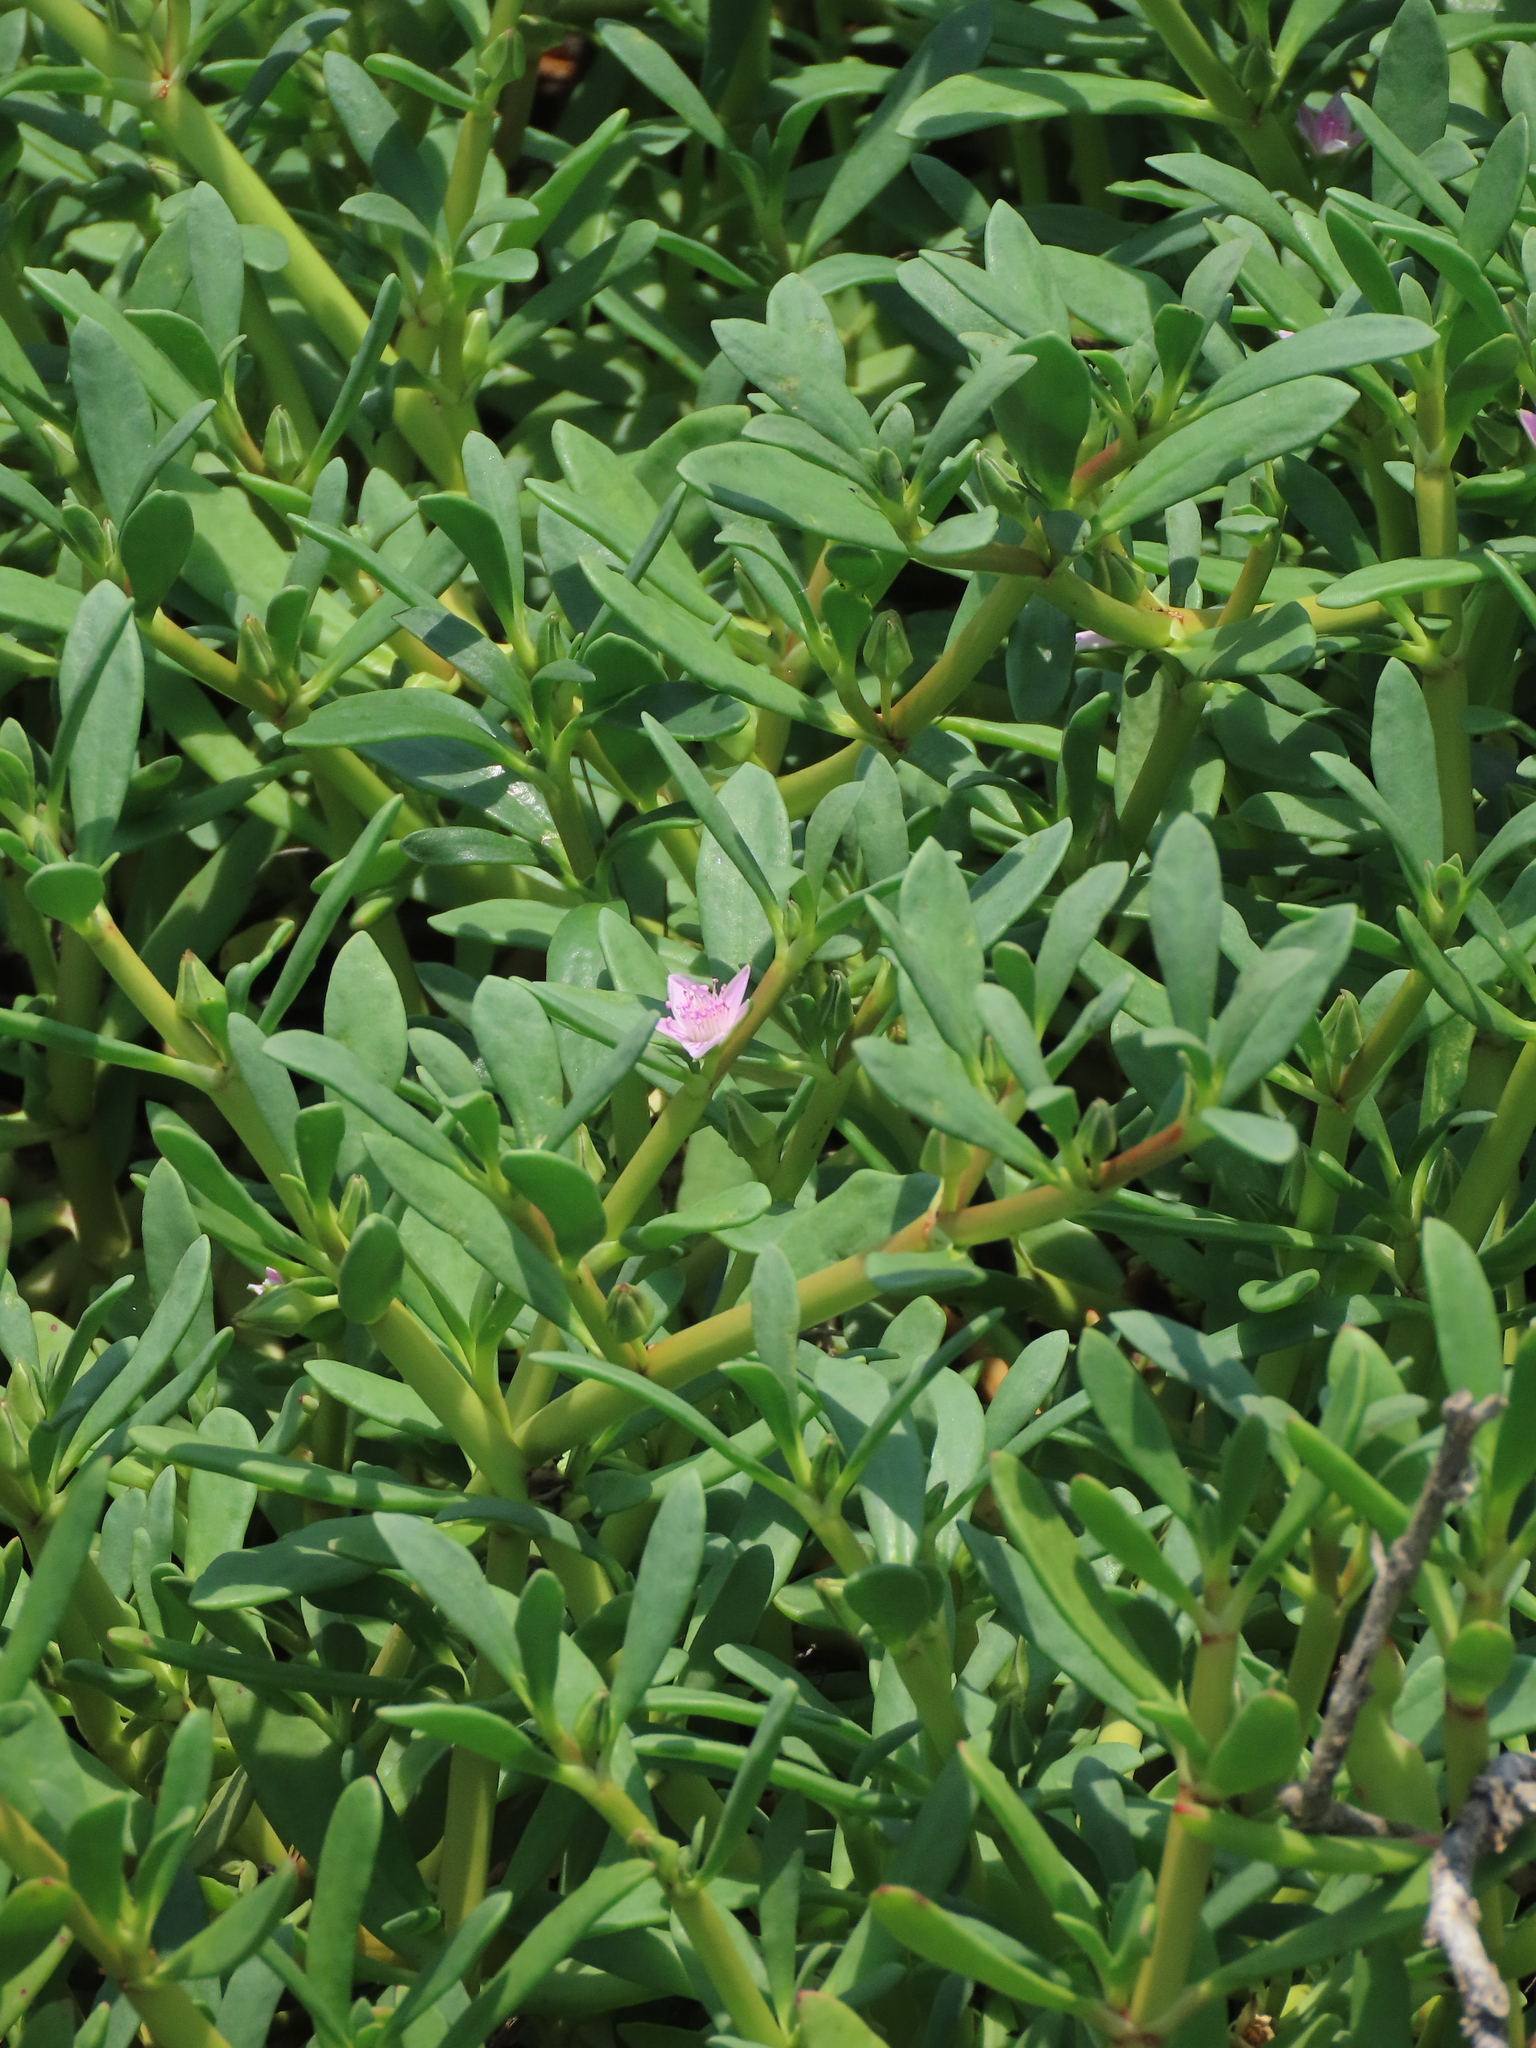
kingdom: Plantae
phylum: Tracheophyta
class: Magnoliopsida
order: Caryophyllales
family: Aizoaceae
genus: Sesuvium
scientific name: Sesuvium portulacastrum
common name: Sea-purslane
